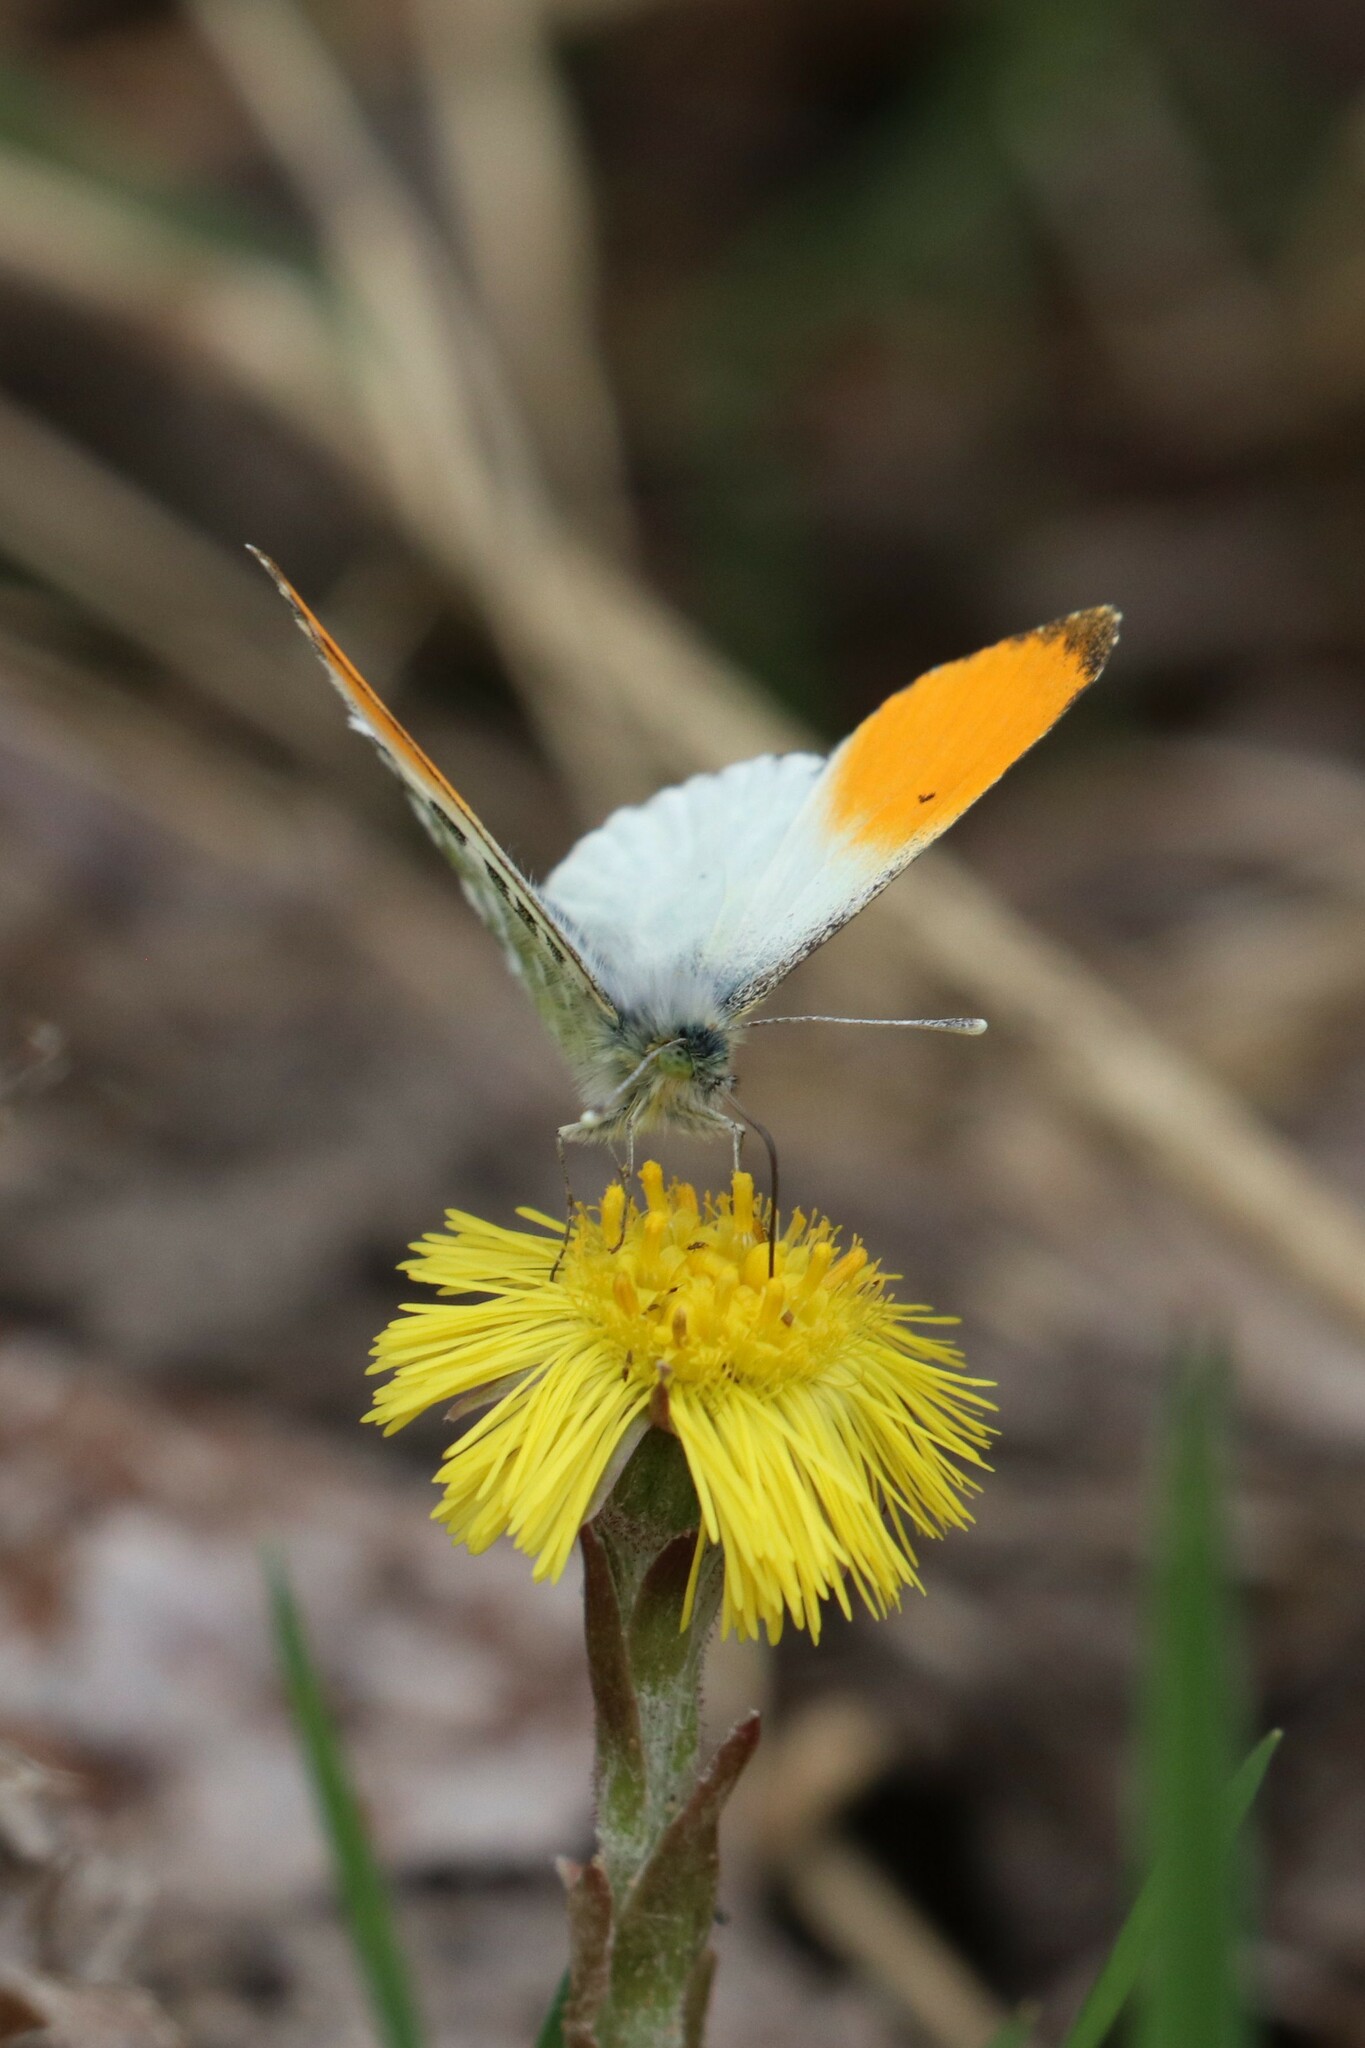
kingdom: Animalia
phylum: Arthropoda
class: Insecta
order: Lepidoptera
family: Pieridae
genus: Anthocharis
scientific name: Anthocharis cardamines
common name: Orange-tip
